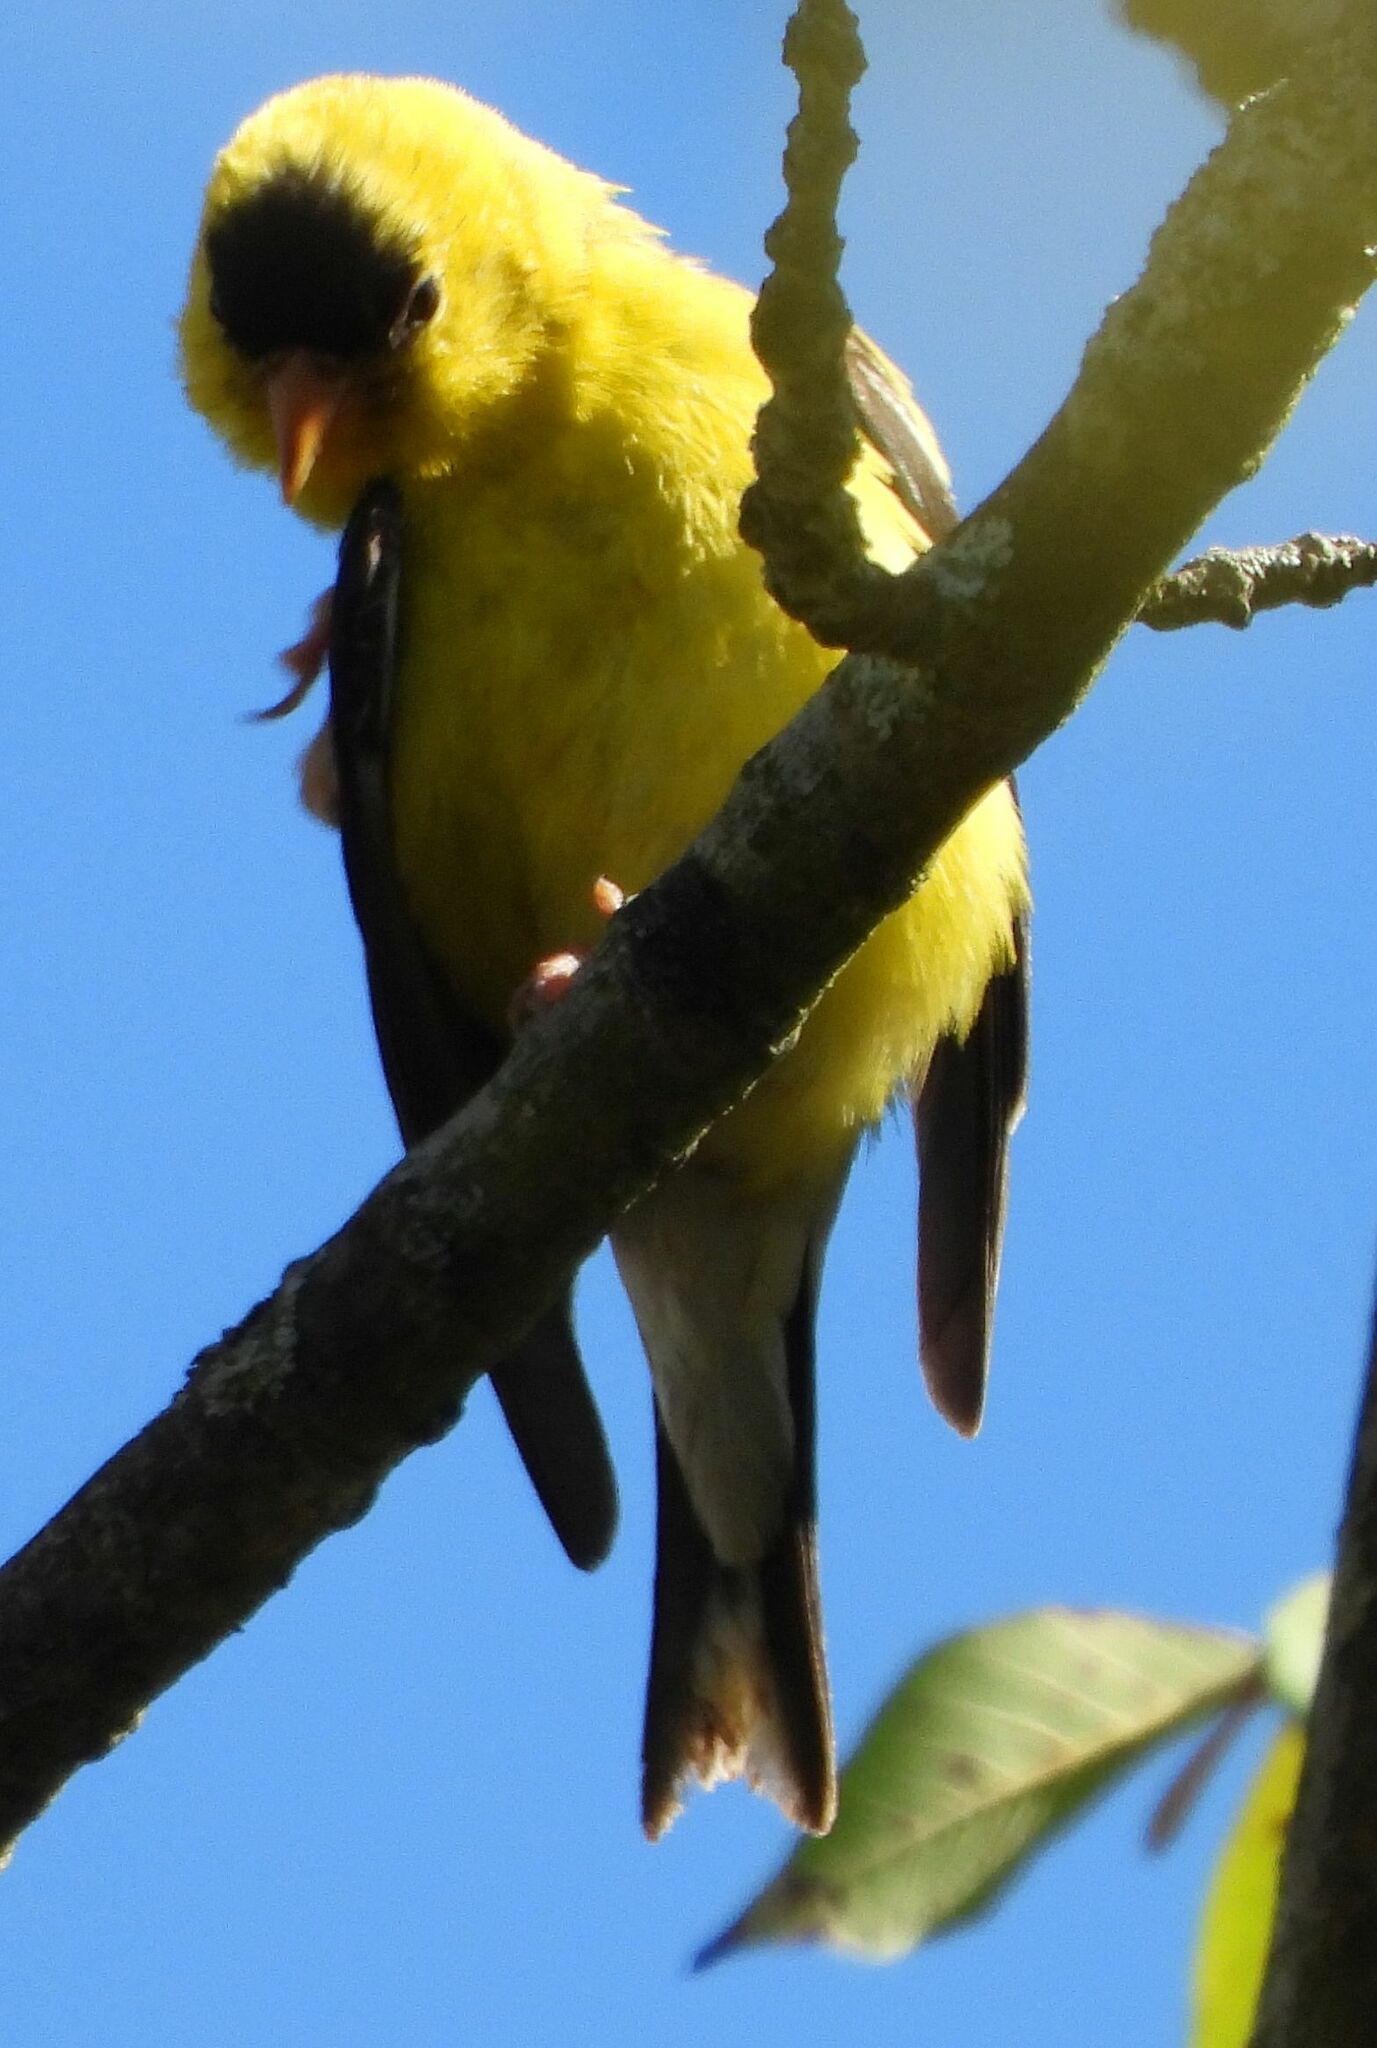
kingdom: Animalia
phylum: Chordata
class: Aves
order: Passeriformes
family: Fringillidae
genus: Spinus
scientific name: Spinus tristis
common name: American goldfinch
